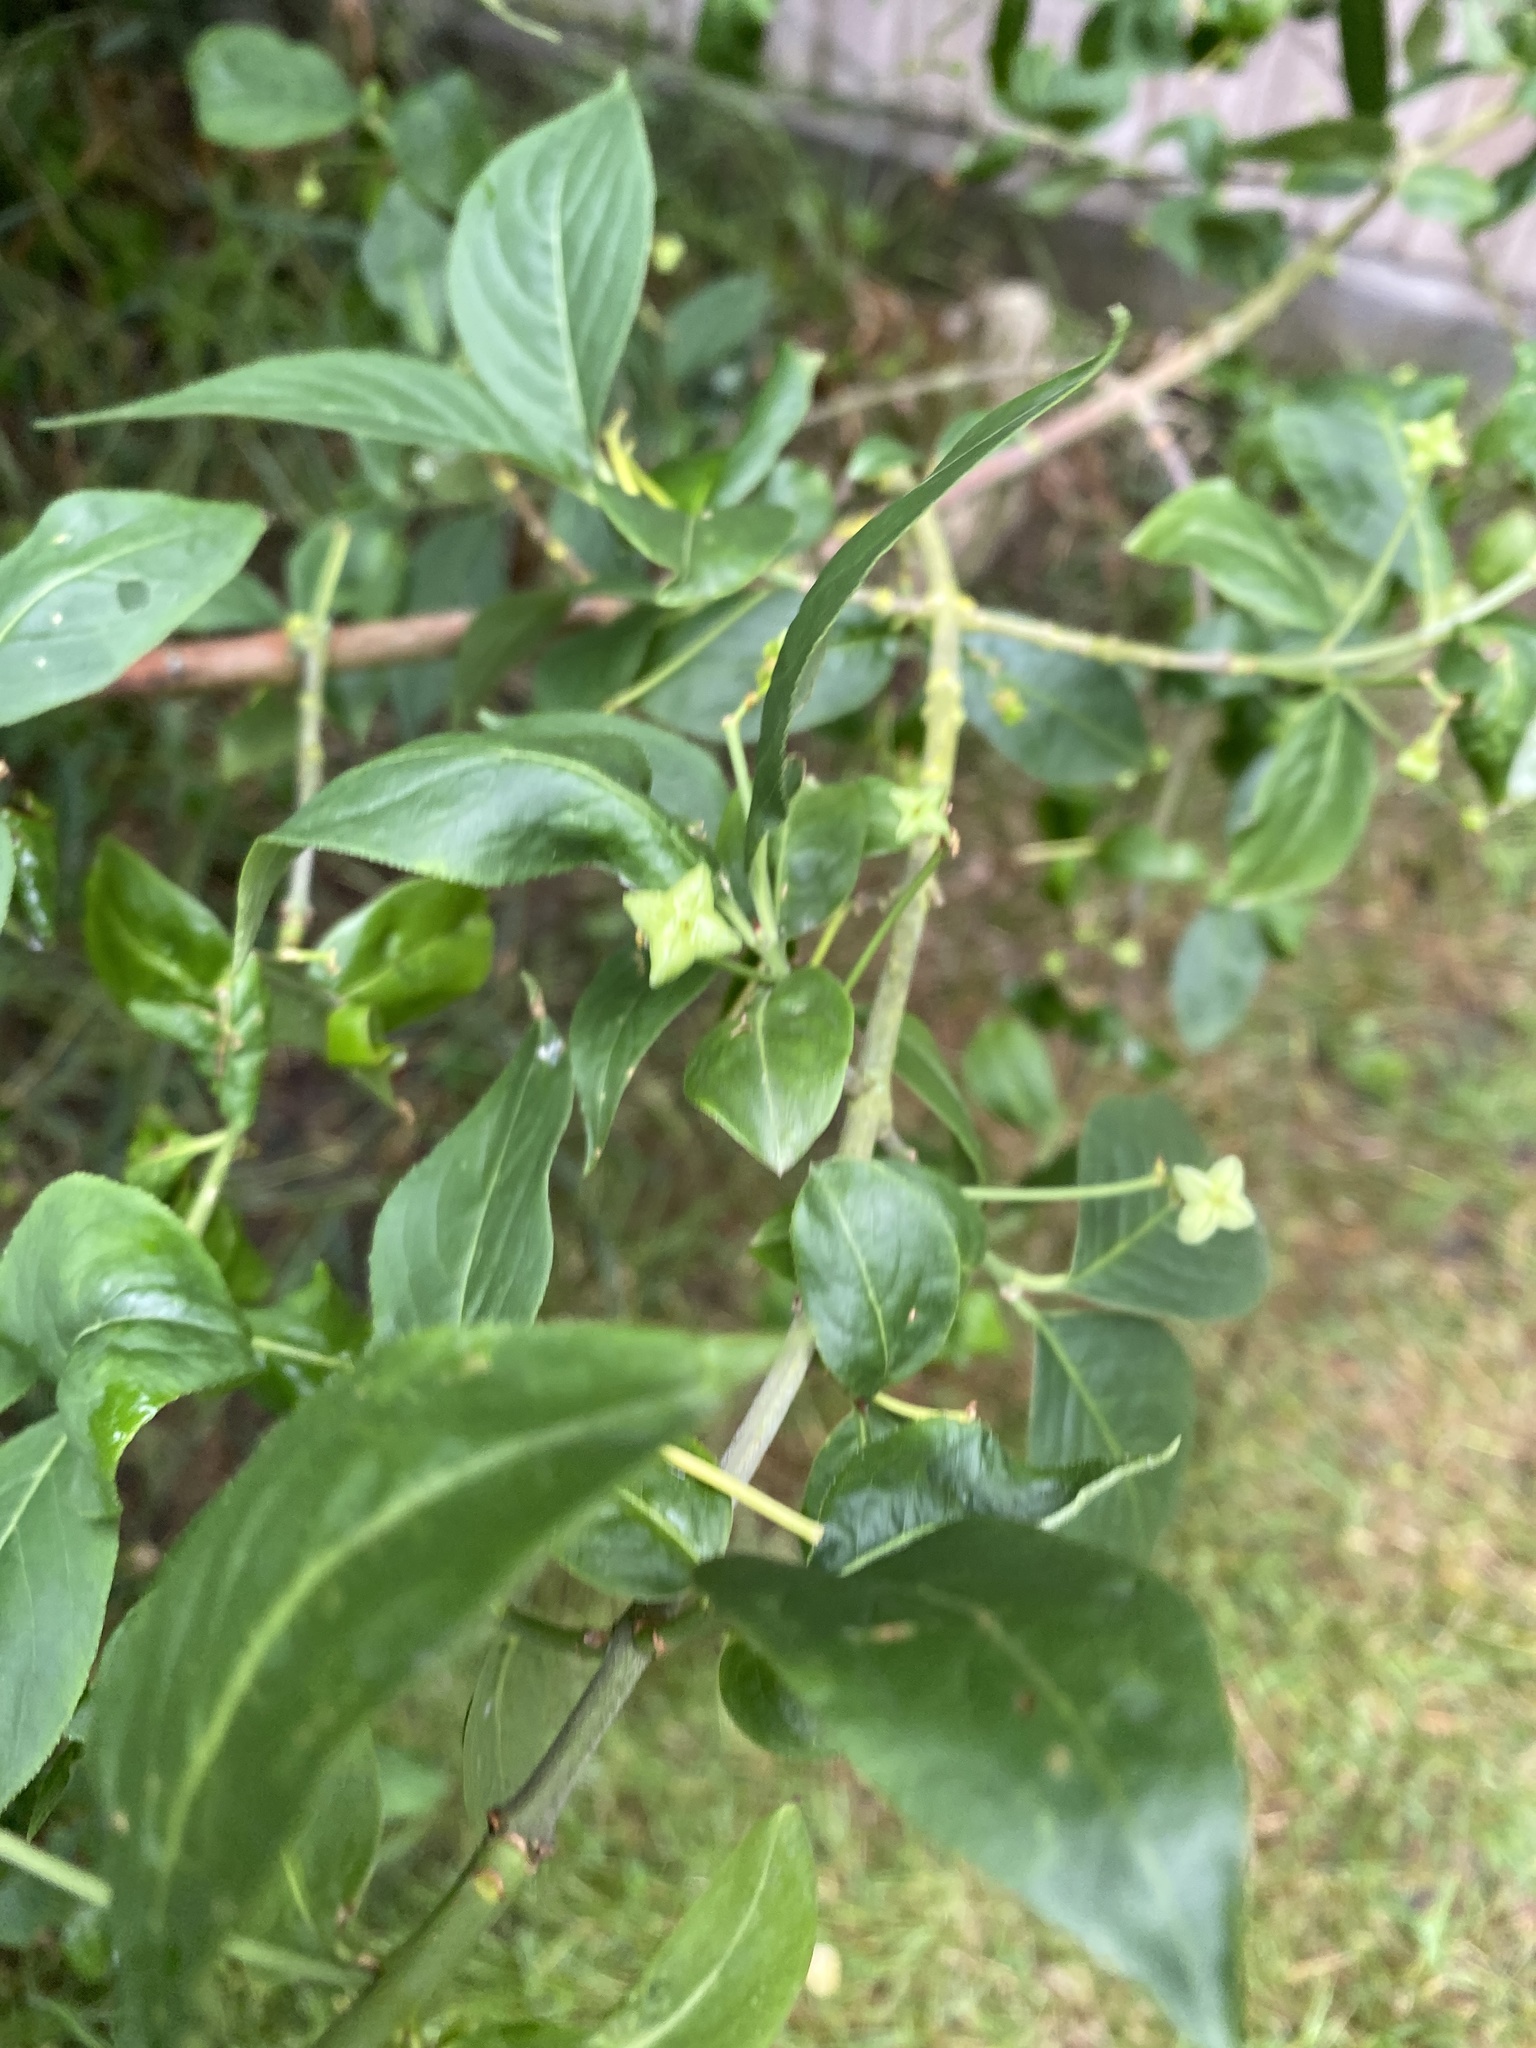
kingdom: Plantae
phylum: Tracheophyta
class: Magnoliopsida
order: Celastrales
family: Celastraceae
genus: Euonymus
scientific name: Euonymus europaeus
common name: Spindle
